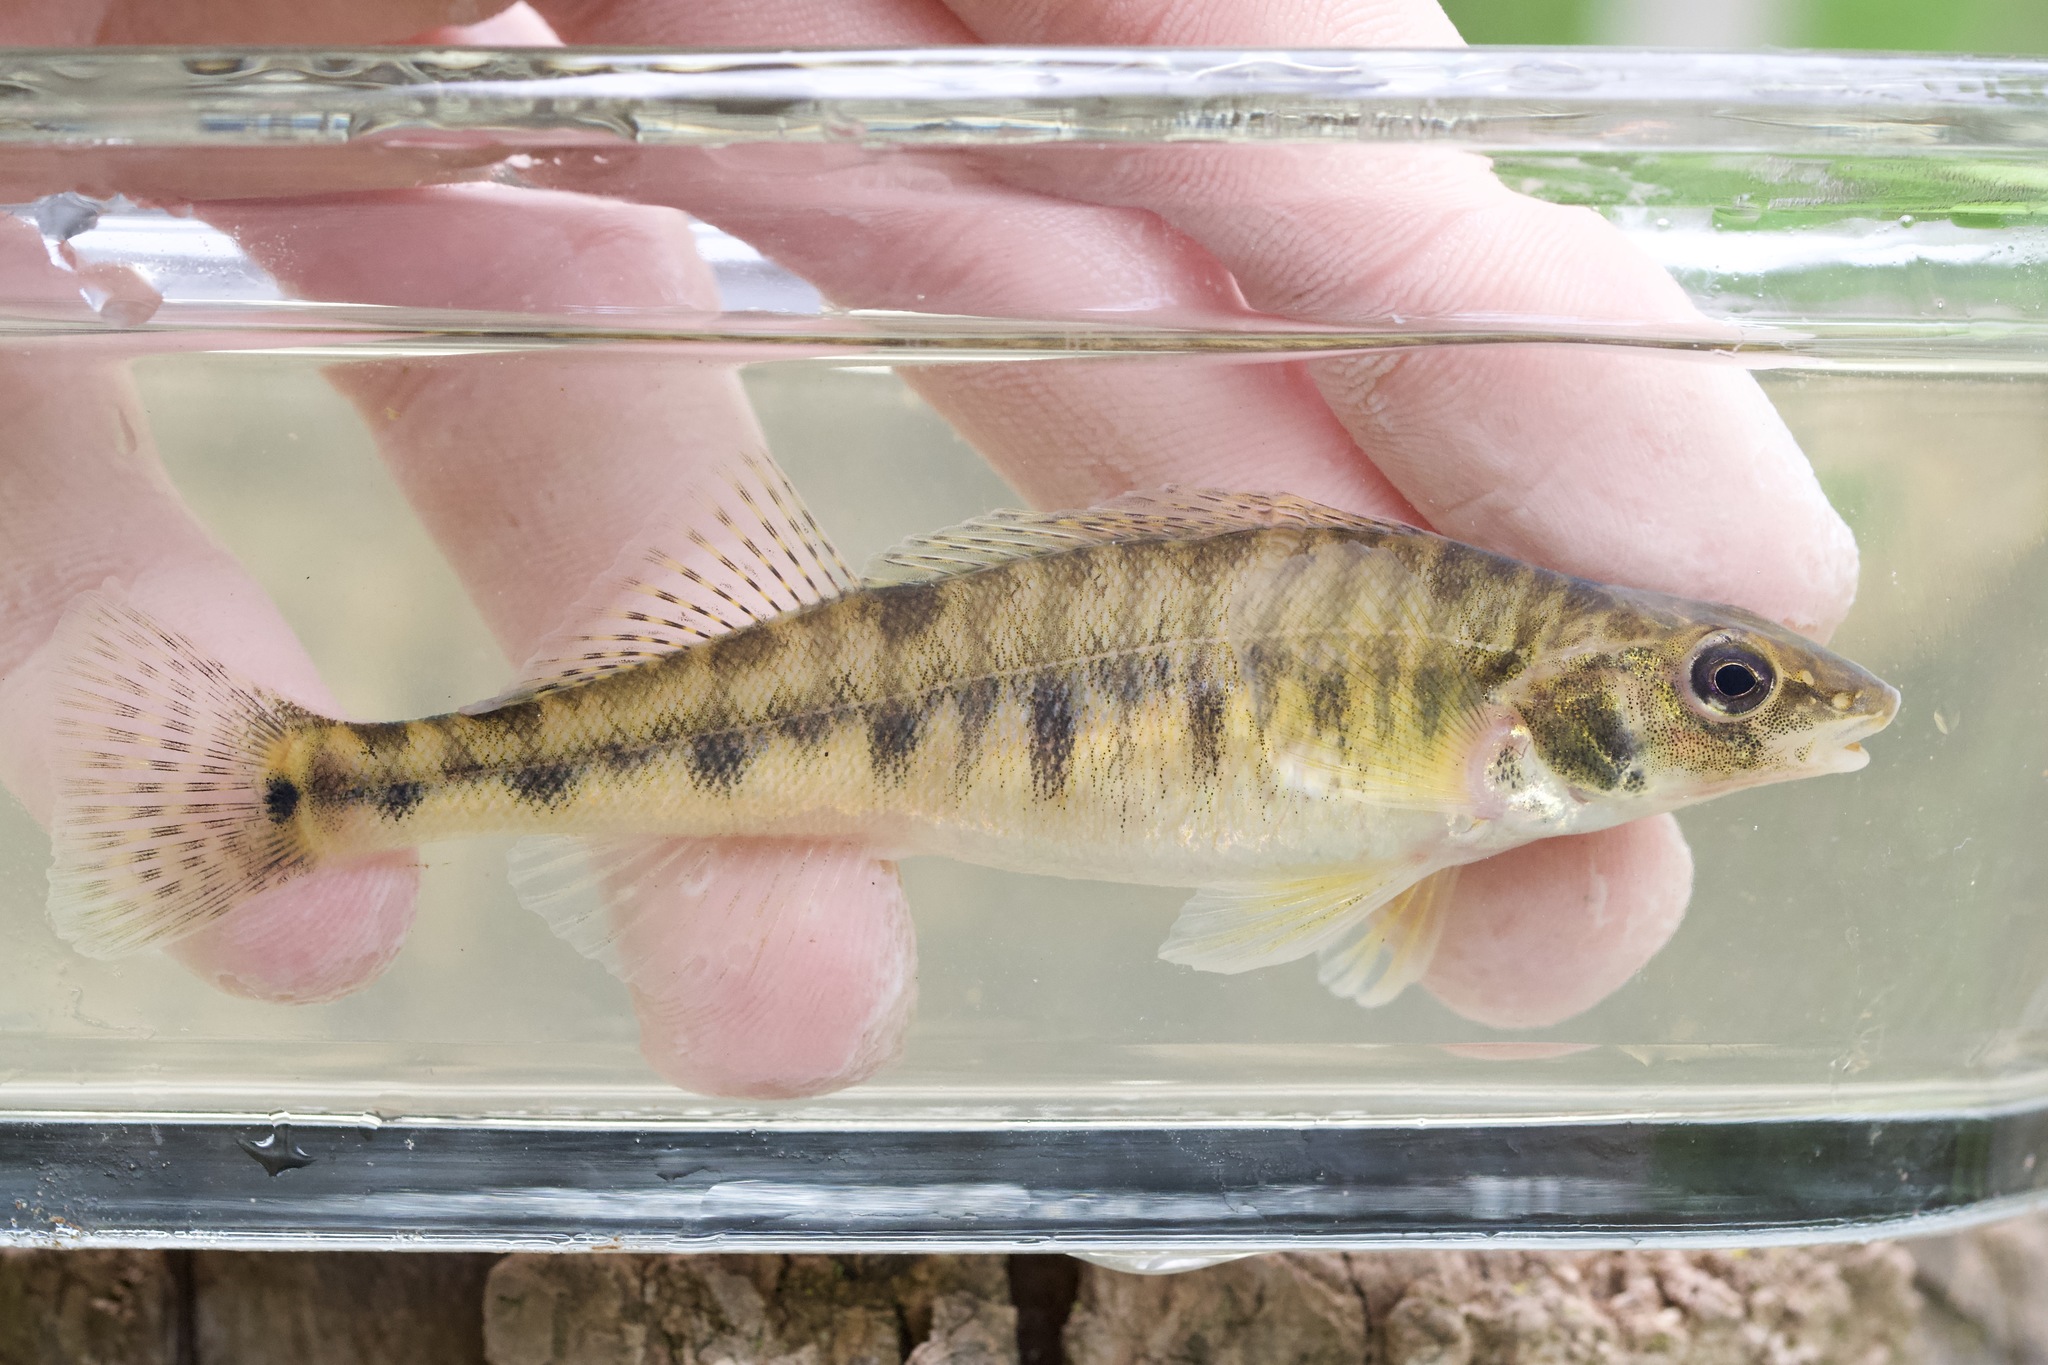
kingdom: Animalia
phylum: Chordata
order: Perciformes
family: Percidae
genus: Percina
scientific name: Percina caprodes
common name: Logperch
